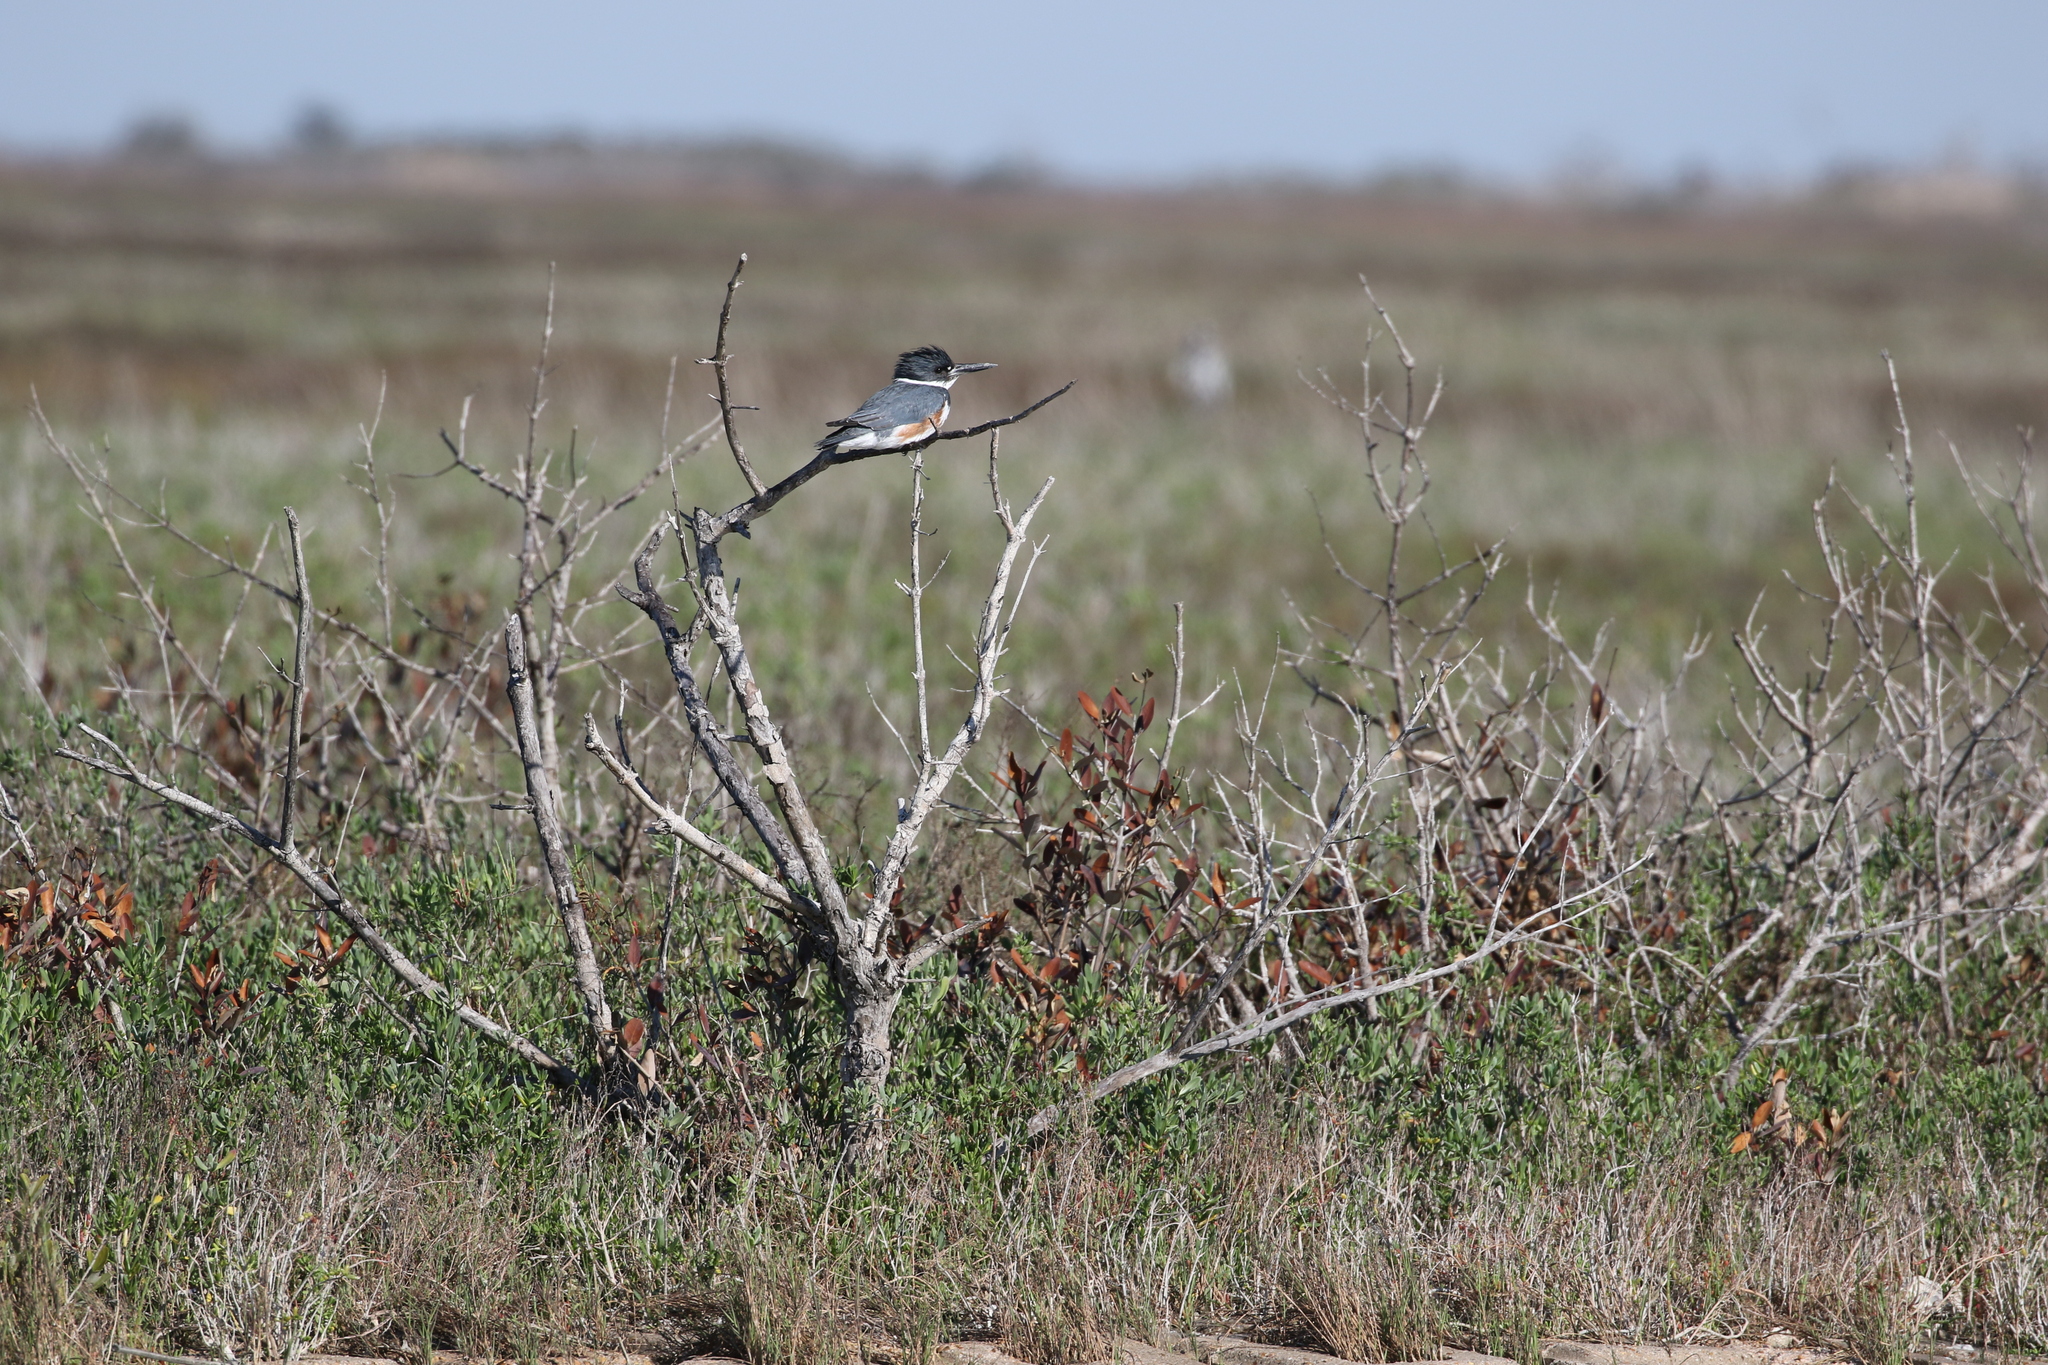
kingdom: Animalia
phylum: Chordata
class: Aves
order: Coraciiformes
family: Alcedinidae
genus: Megaceryle
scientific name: Megaceryle alcyon
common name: Belted kingfisher
